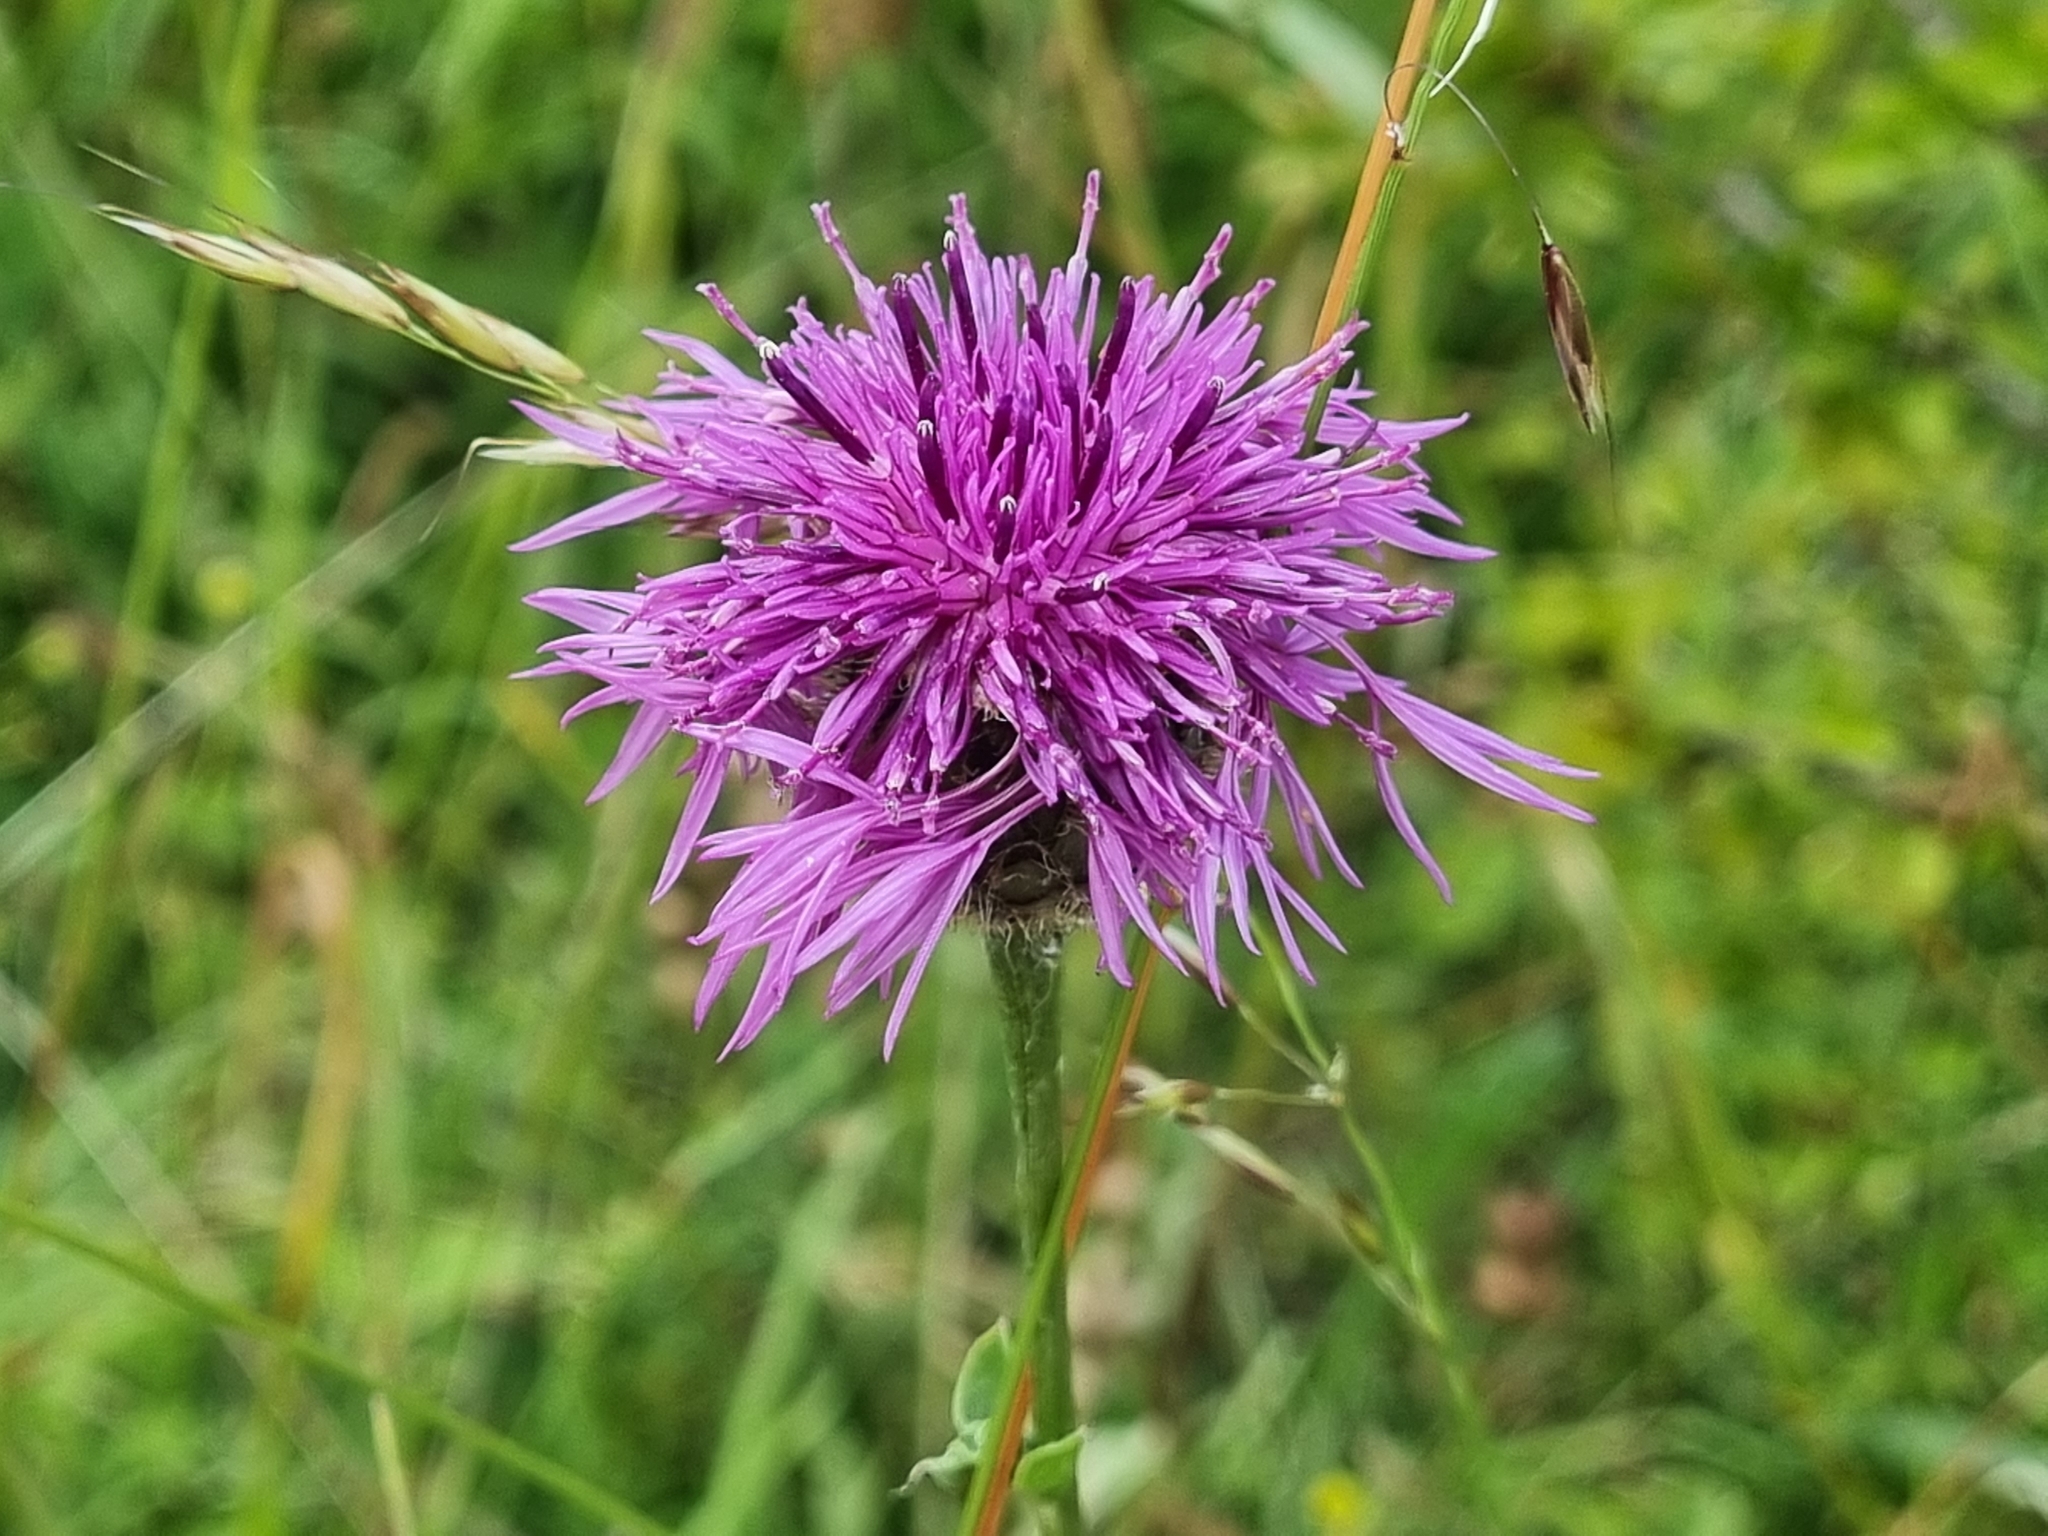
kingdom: Plantae
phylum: Tracheophyta
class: Magnoliopsida
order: Asterales
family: Asteraceae
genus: Centaurea
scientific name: Centaurea scabiosa
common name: Greater knapweed
